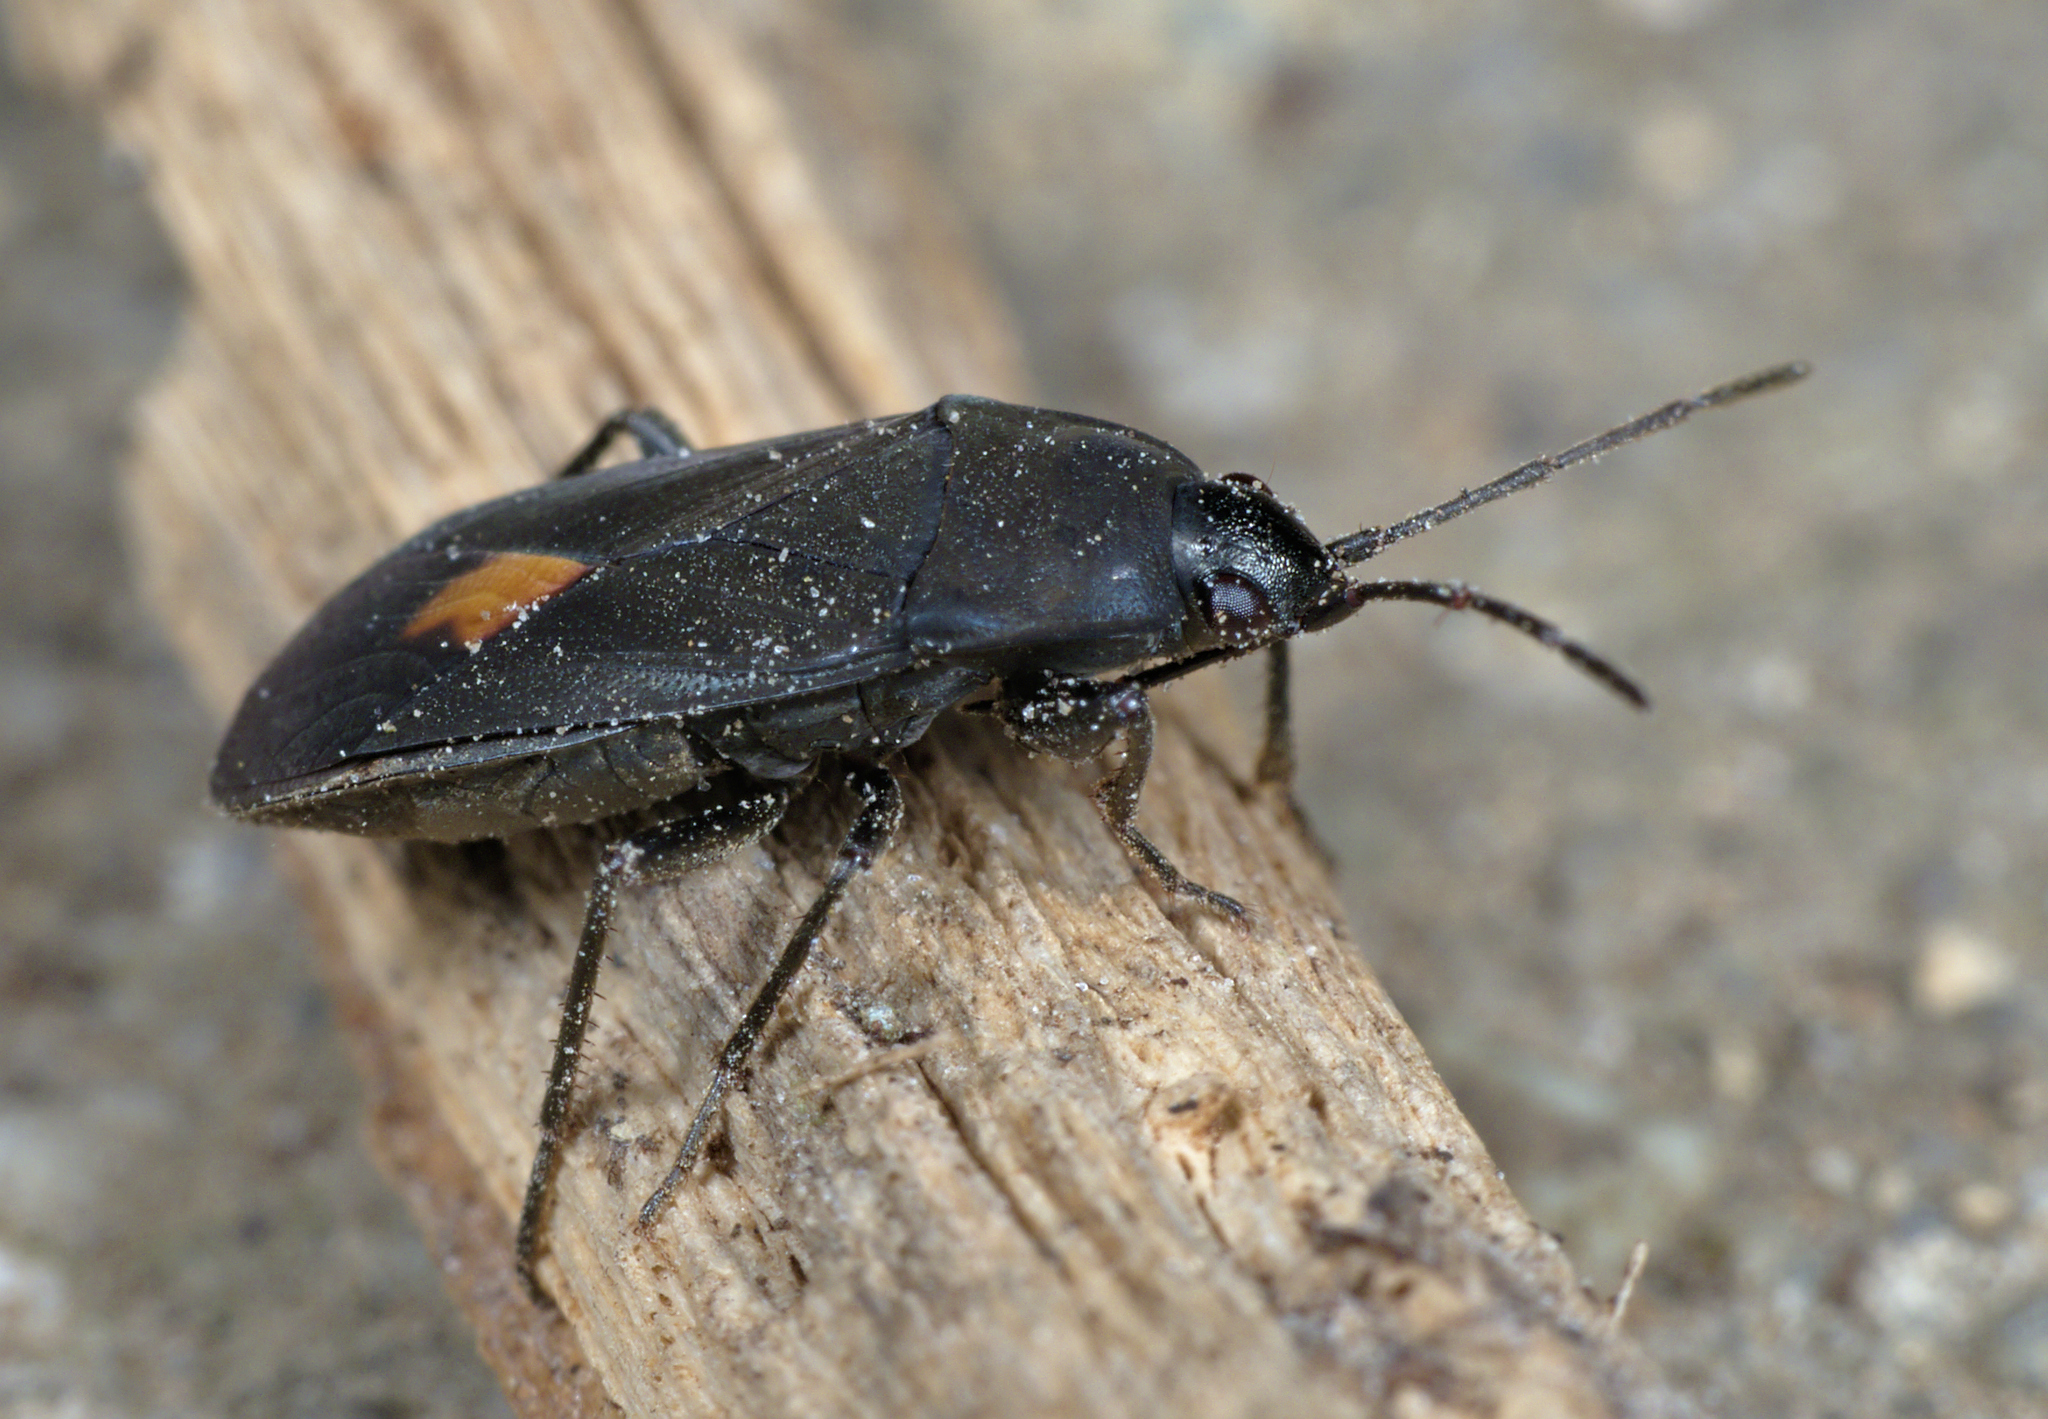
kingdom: Animalia
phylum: Arthropoda
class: Insecta
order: Hemiptera
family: Rhyparochromidae
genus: Aphanus
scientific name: Aphanus rolandri
